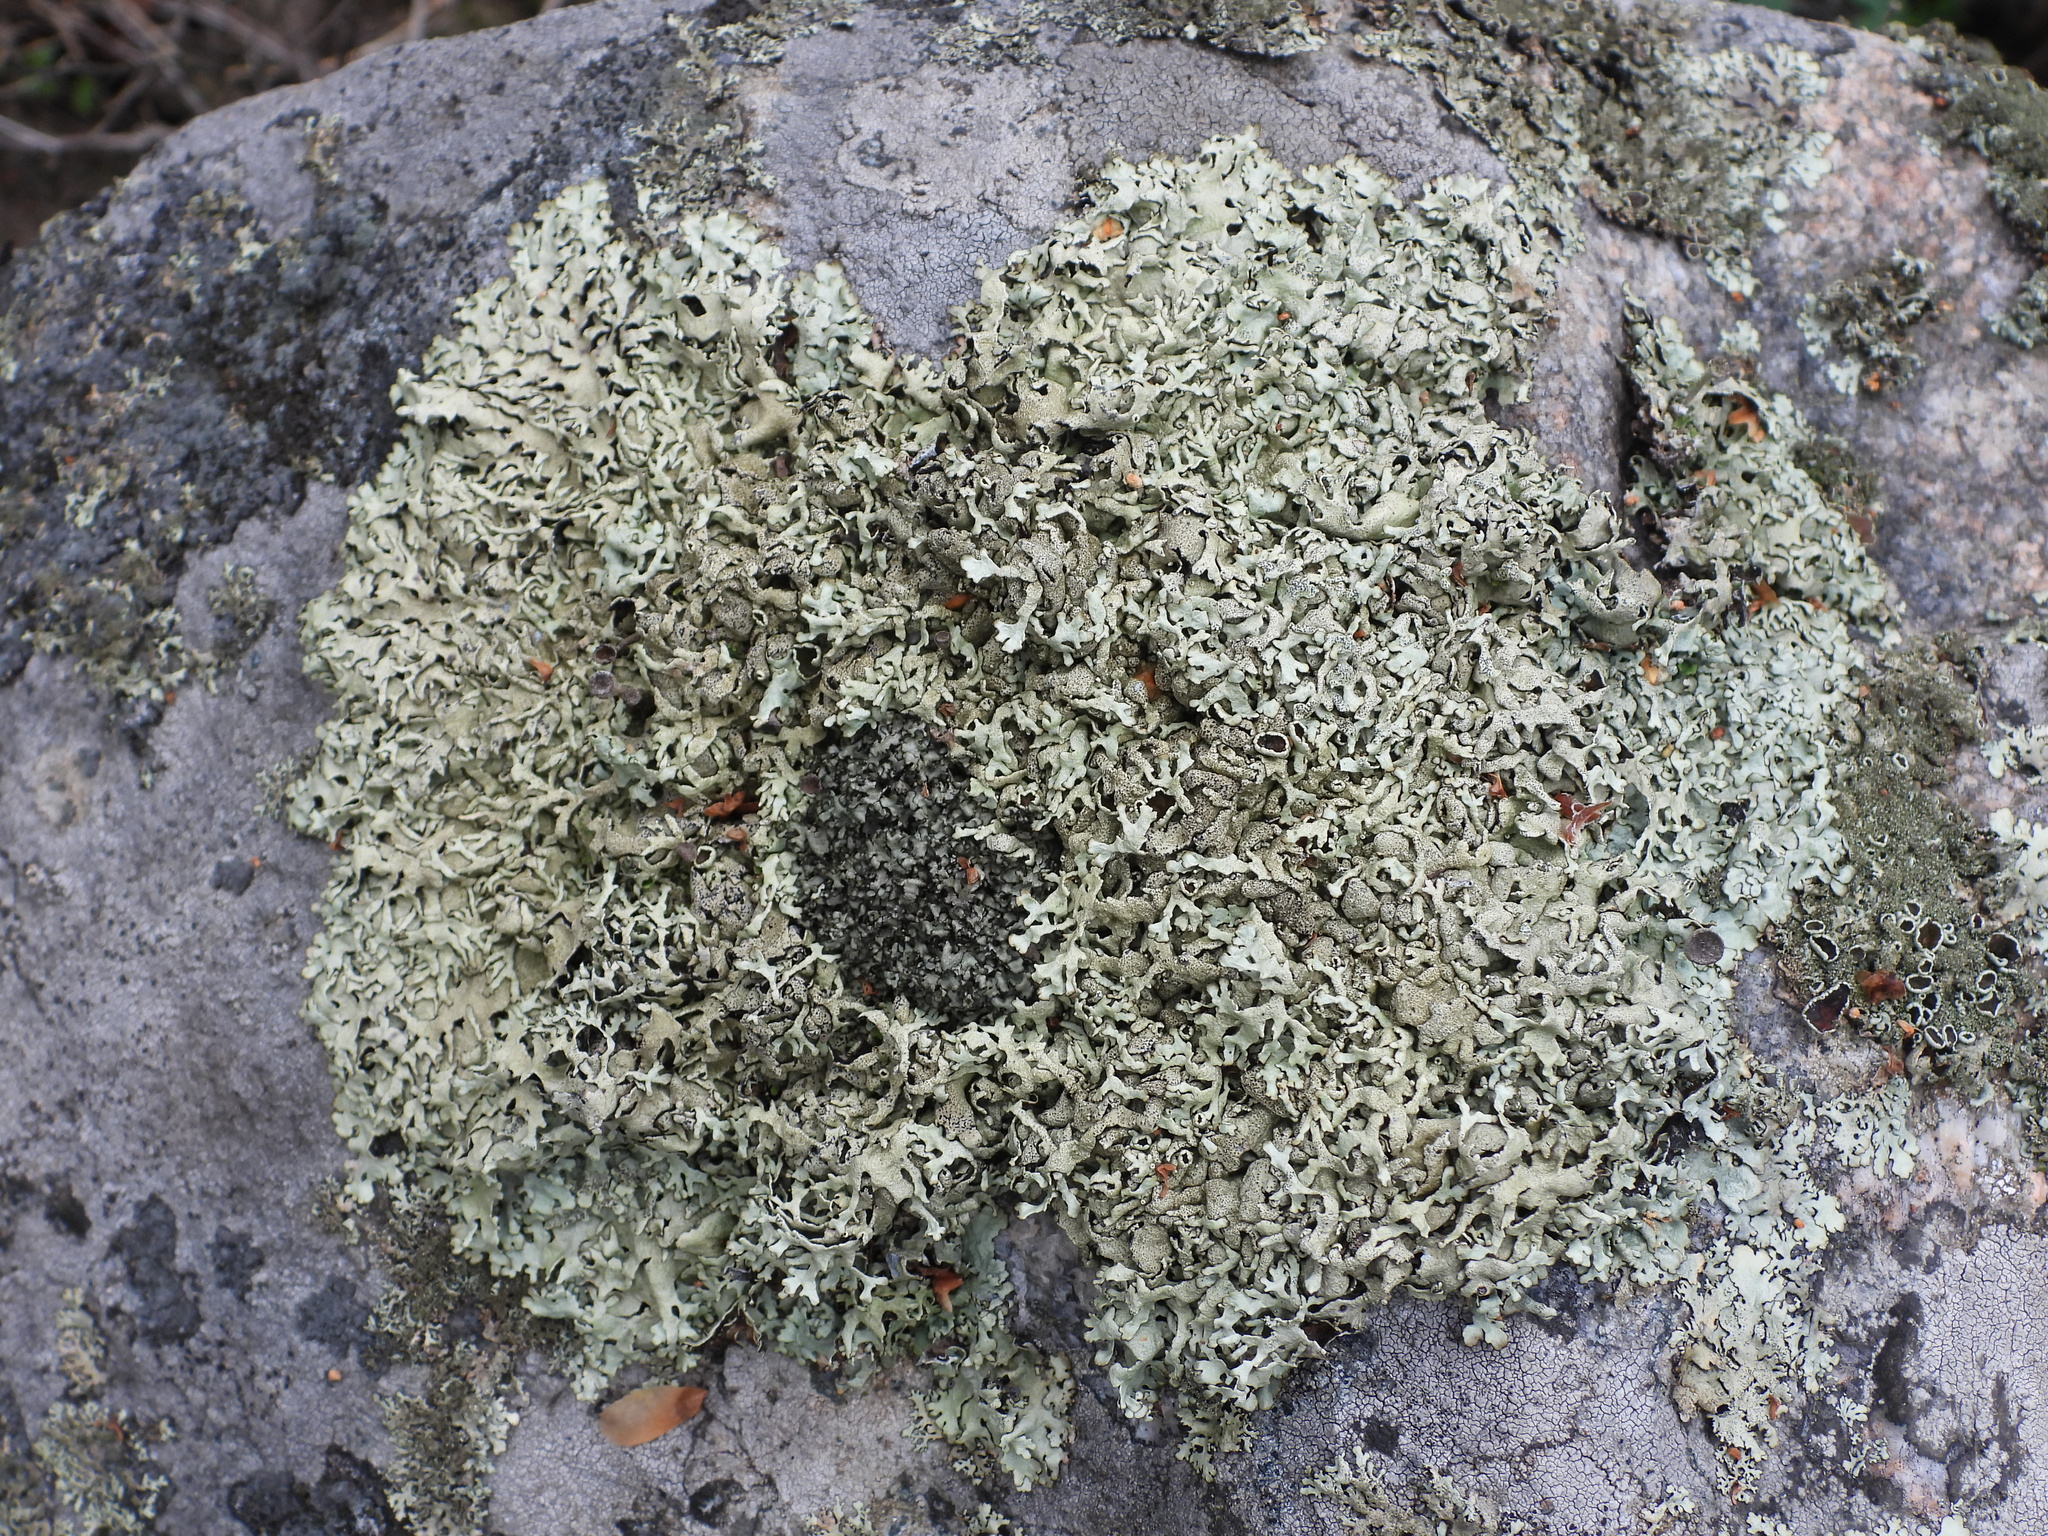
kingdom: Fungi
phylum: Ascomycota
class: Lecanoromycetes
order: Lecanorales
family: Parmeliaceae
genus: Xanthoparmelia
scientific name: Xanthoparmelia stenophylla
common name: Shingled rock shield
